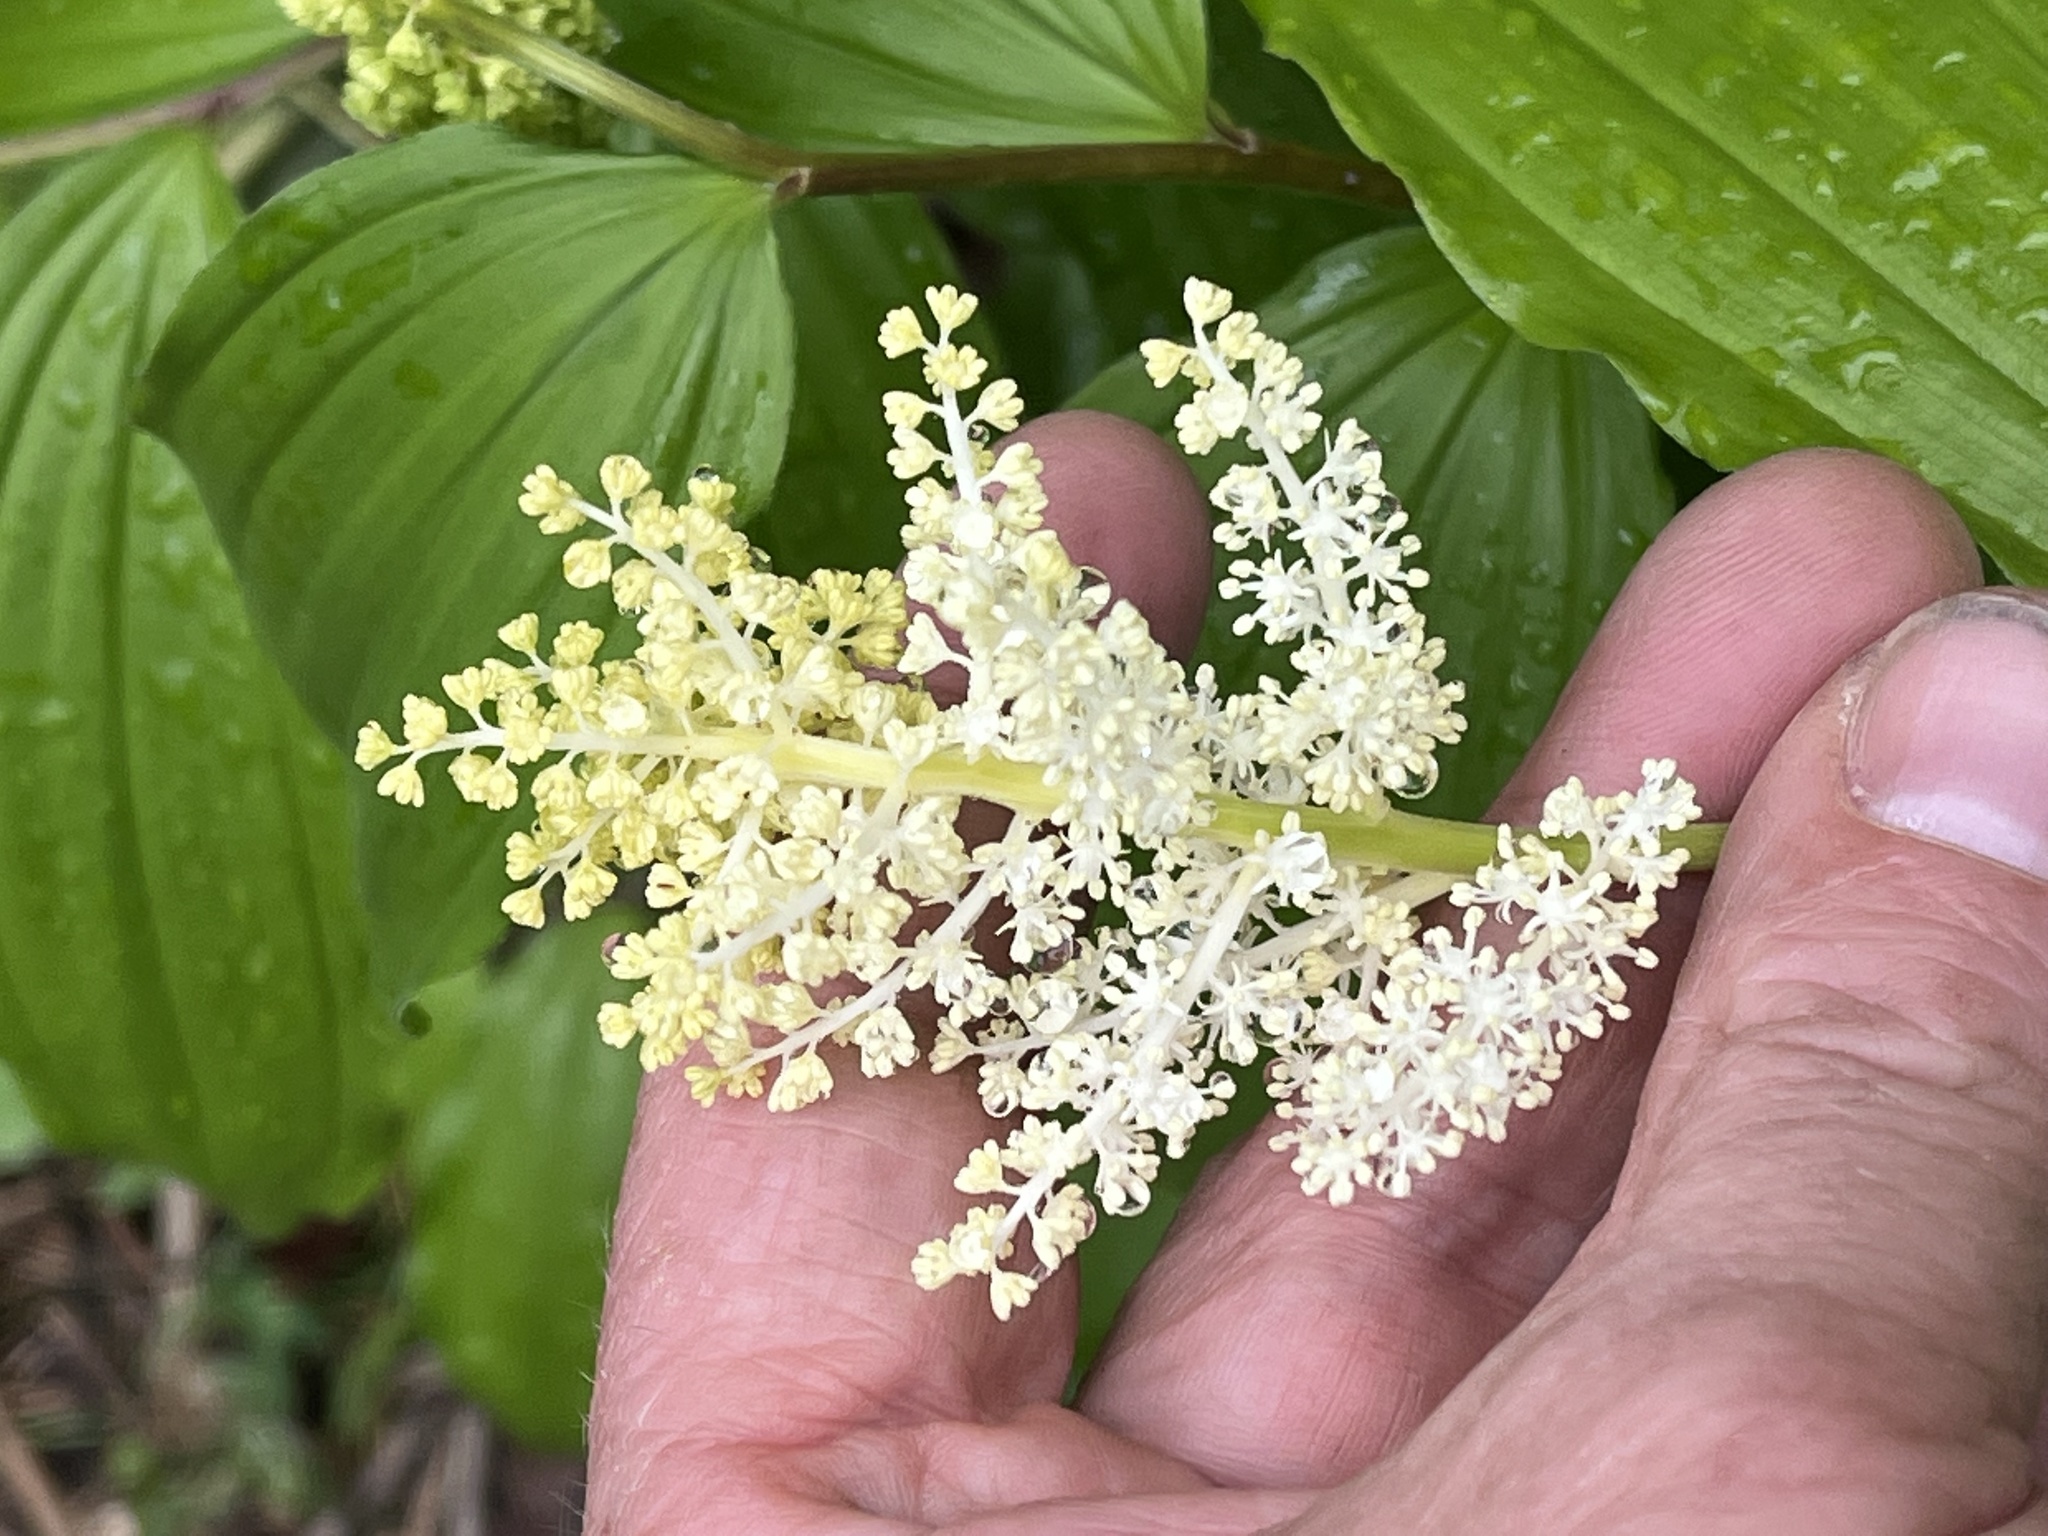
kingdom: Plantae
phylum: Tracheophyta
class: Liliopsida
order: Asparagales
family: Asparagaceae
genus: Maianthemum
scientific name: Maianthemum racemosum
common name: False spikenard
